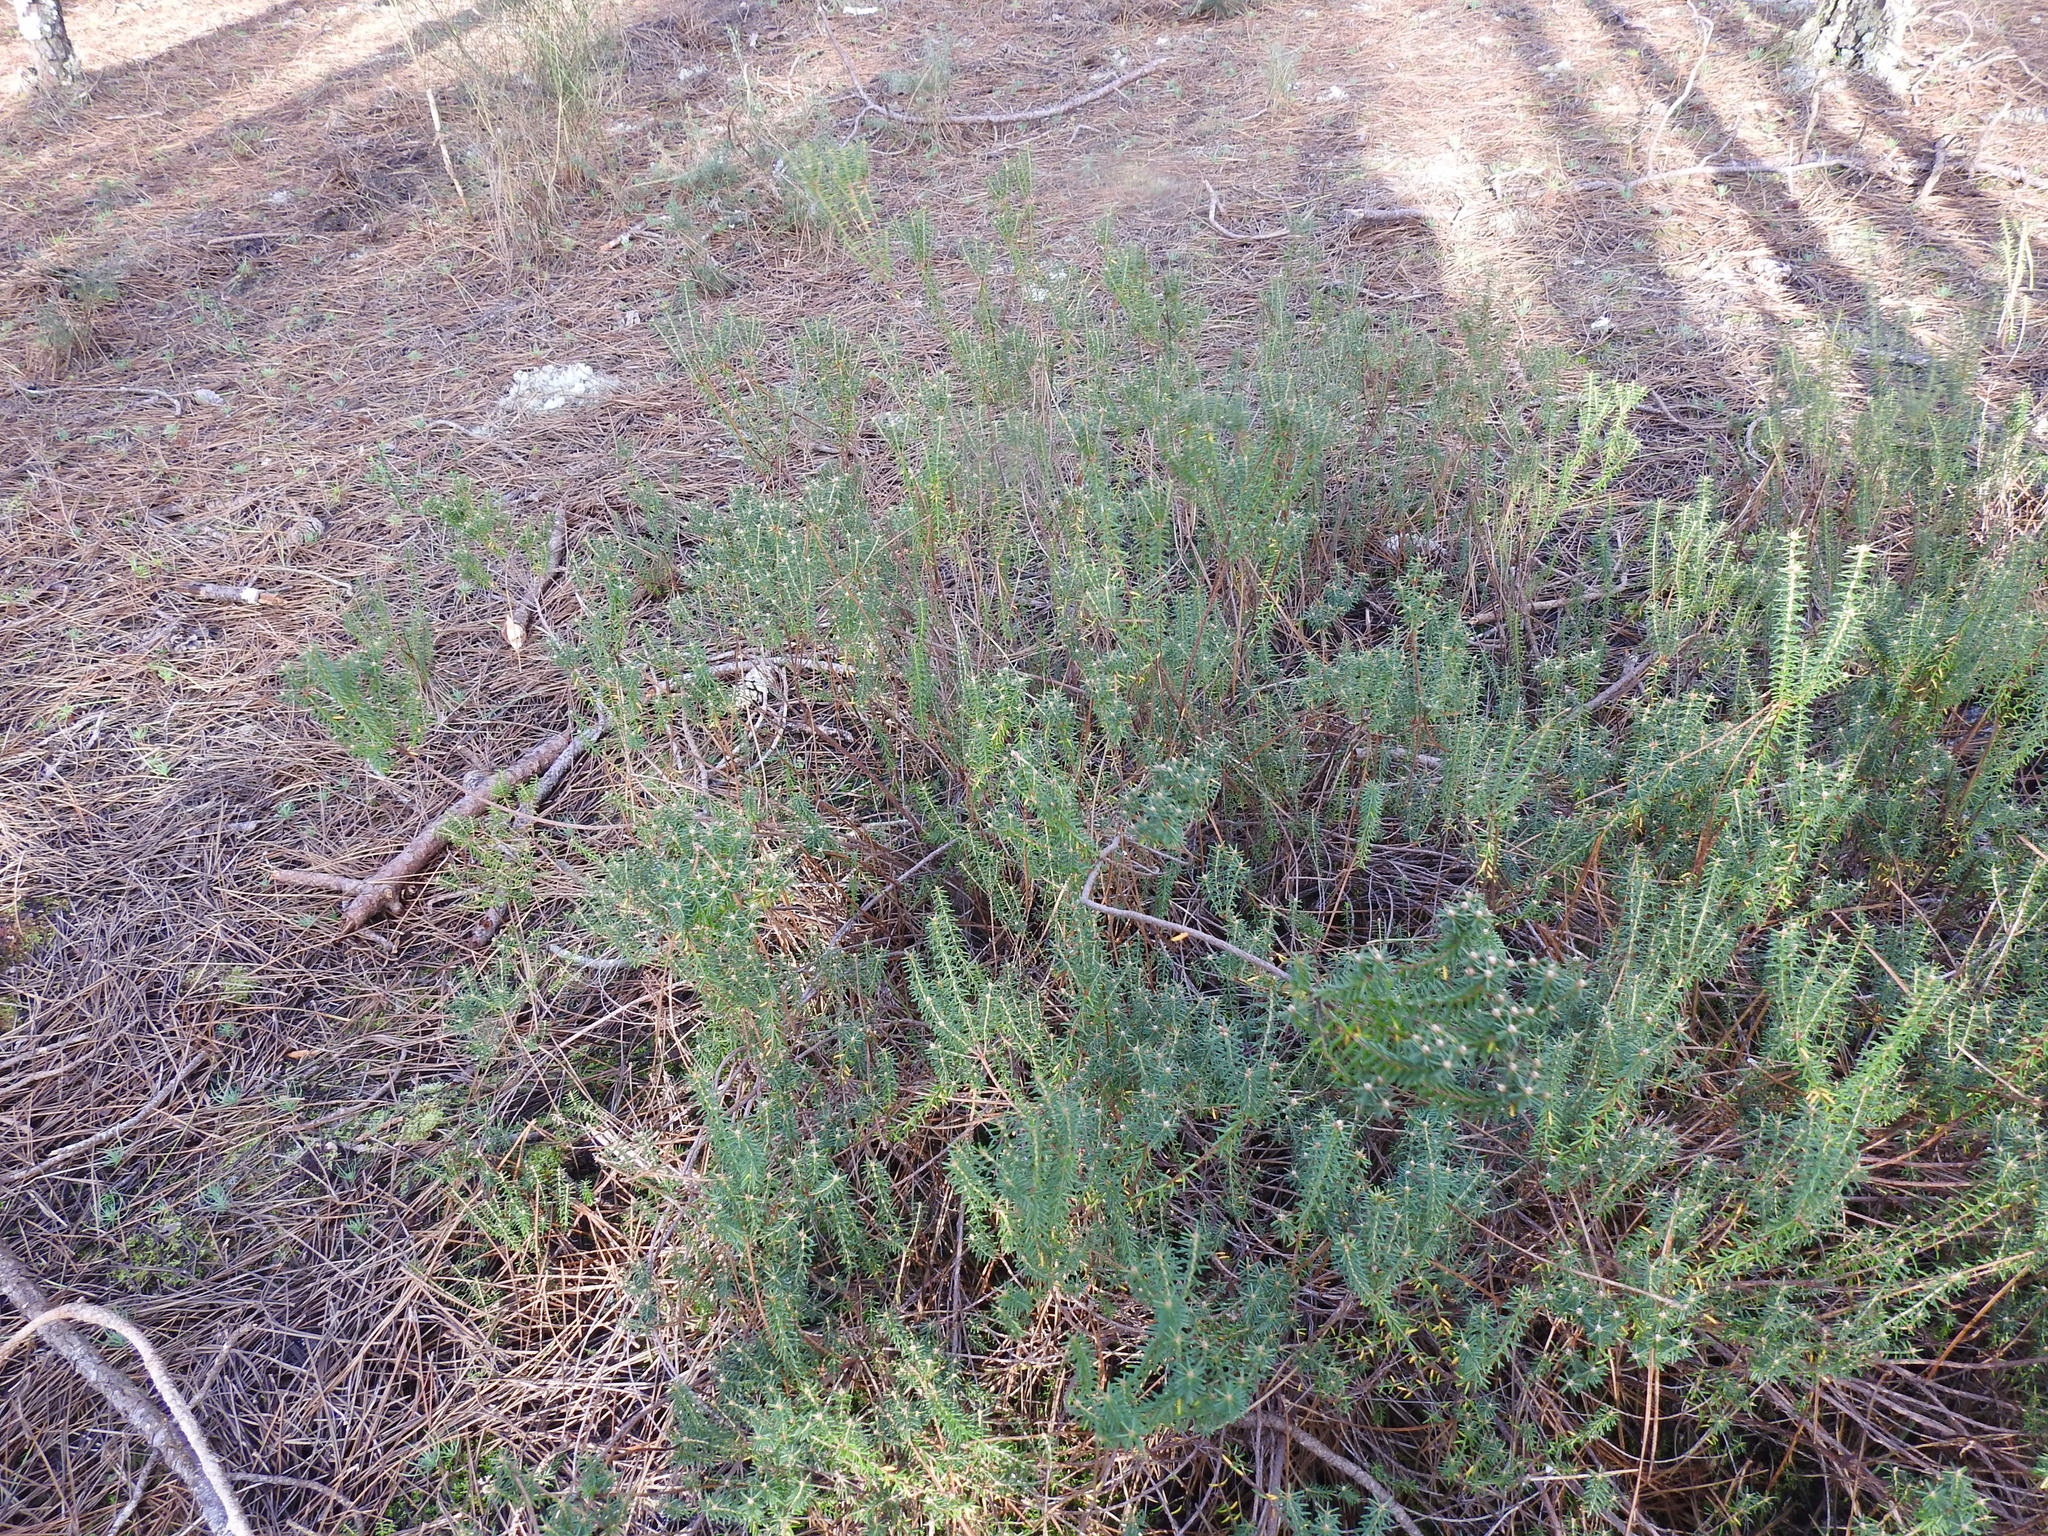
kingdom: Plantae
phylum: Tracheophyta
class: Magnoliopsida
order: Ericales
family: Ericaceae
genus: Corema
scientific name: Corema album
